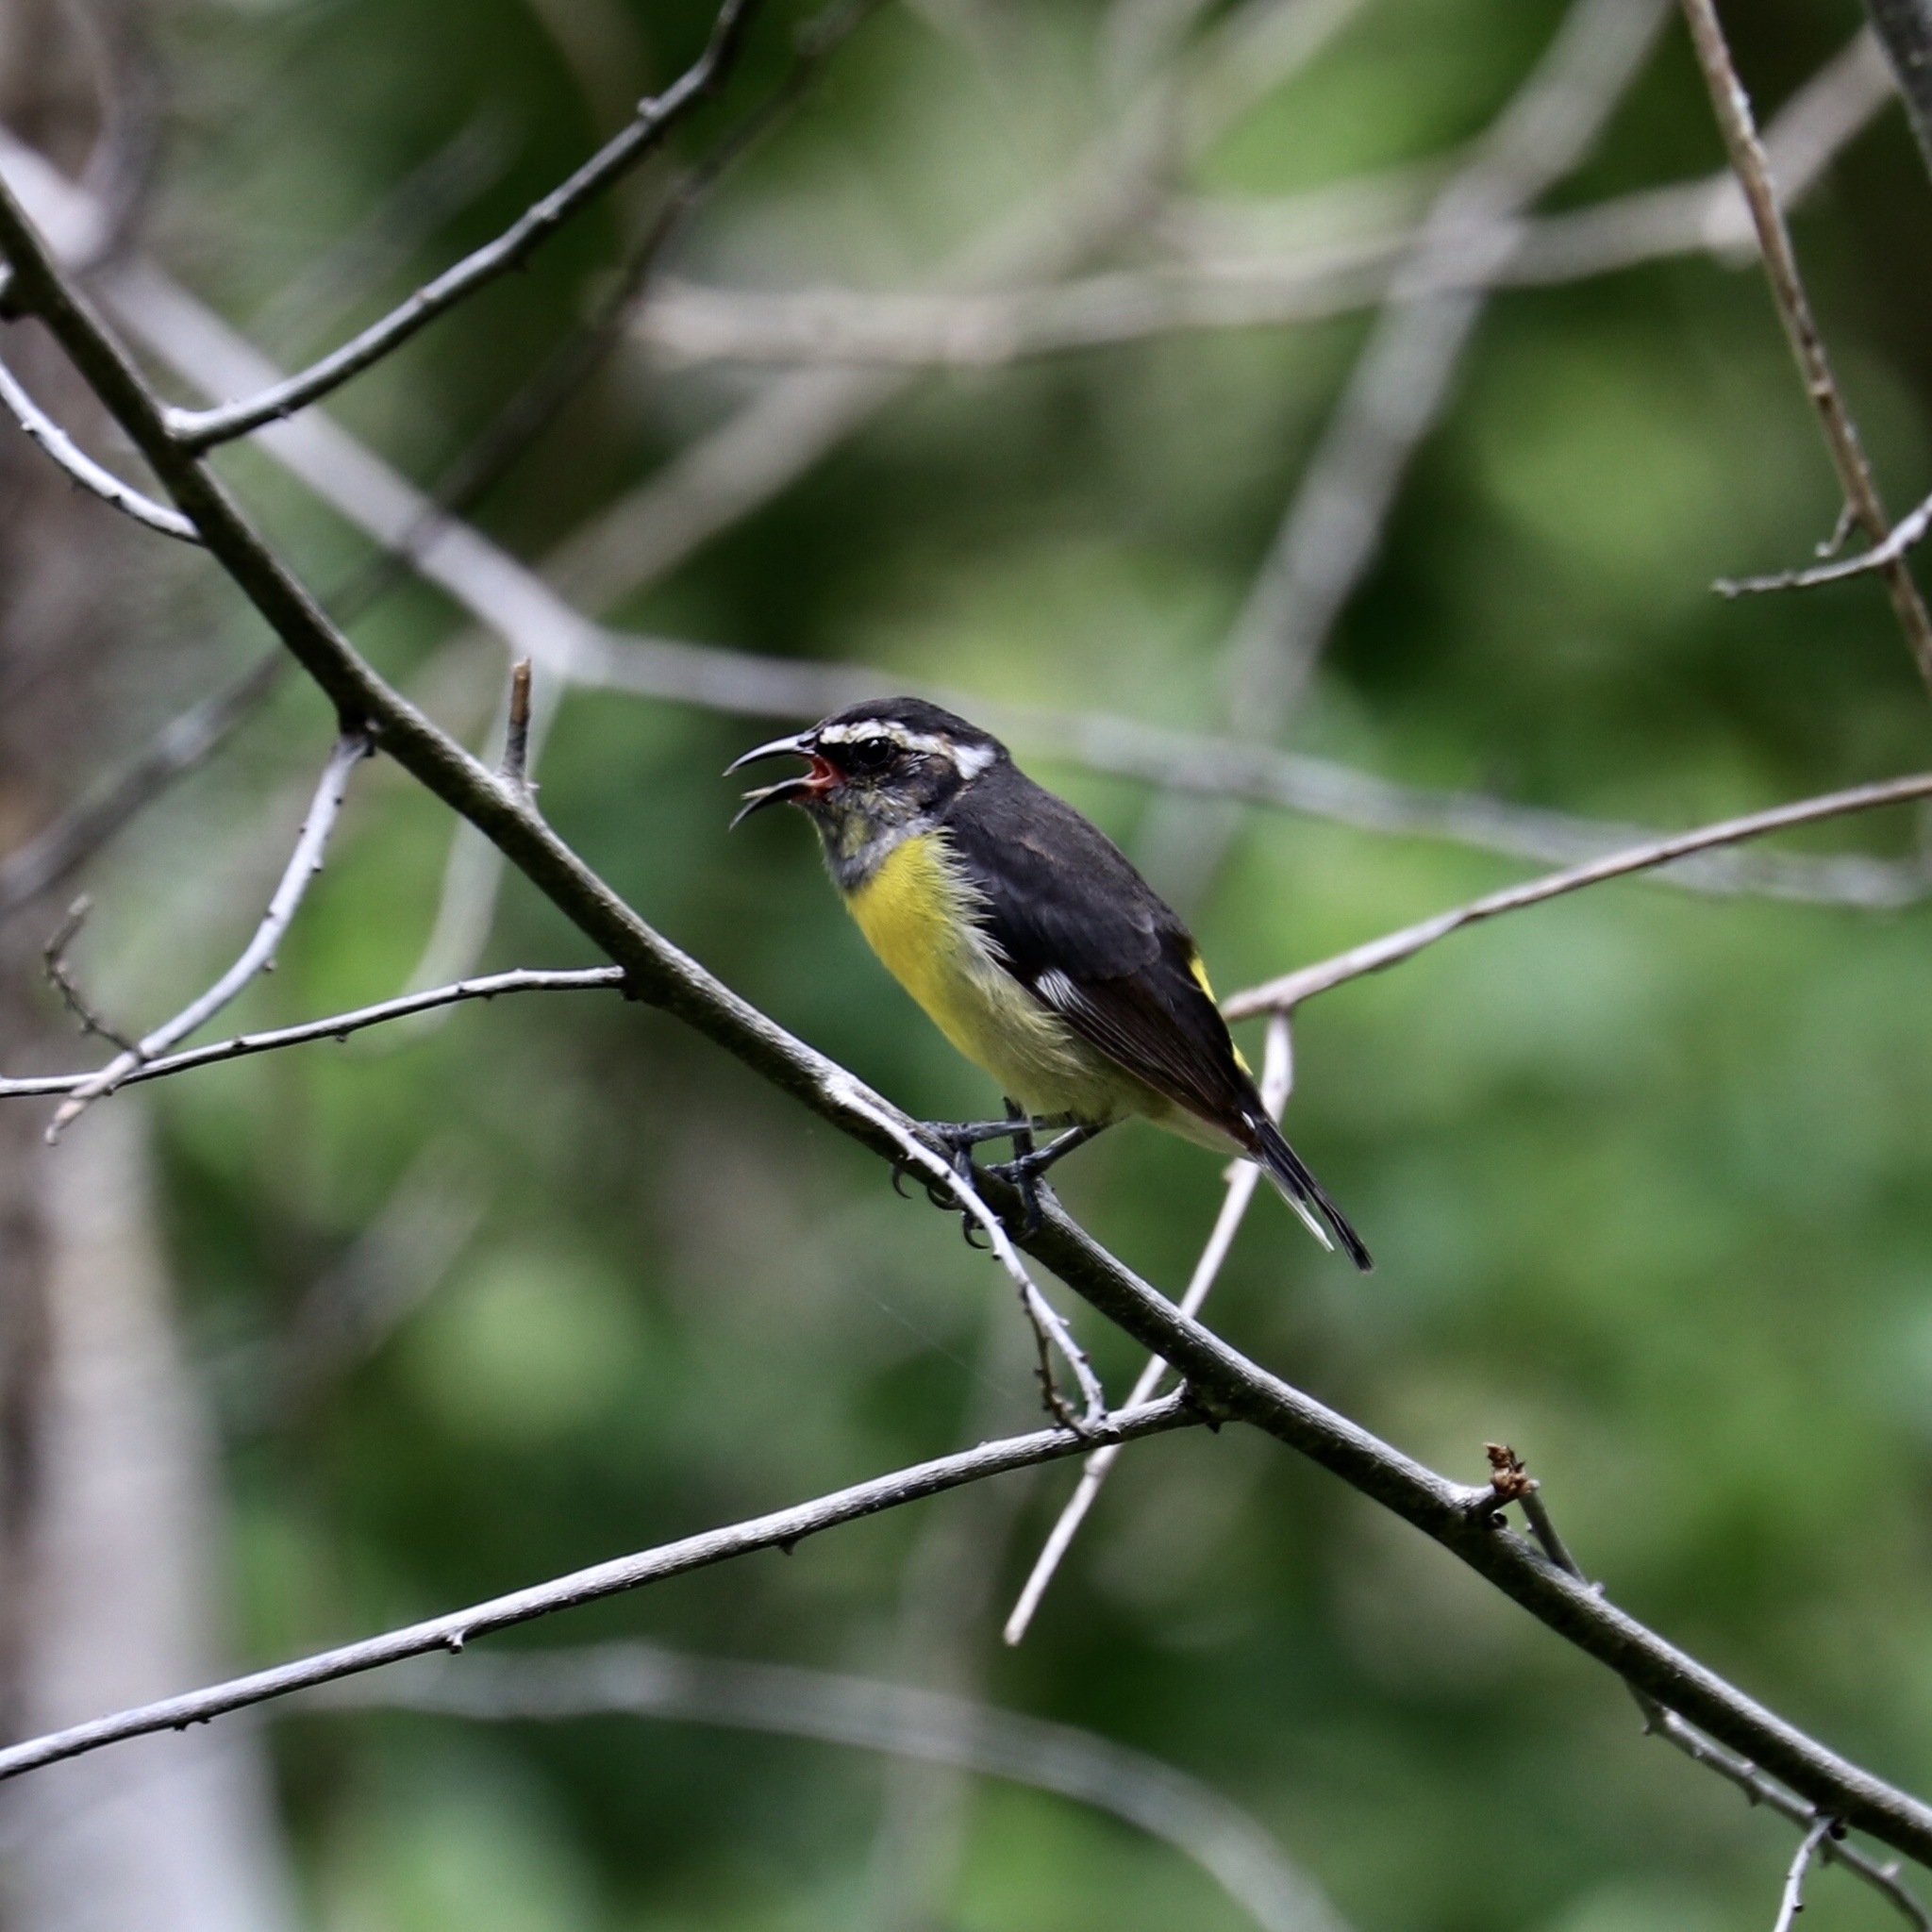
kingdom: Animalia
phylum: Chordata
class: Aves
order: Passeriformes
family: Thraupidae
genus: Coereba
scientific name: Coereba flaveola
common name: Bananaquit
